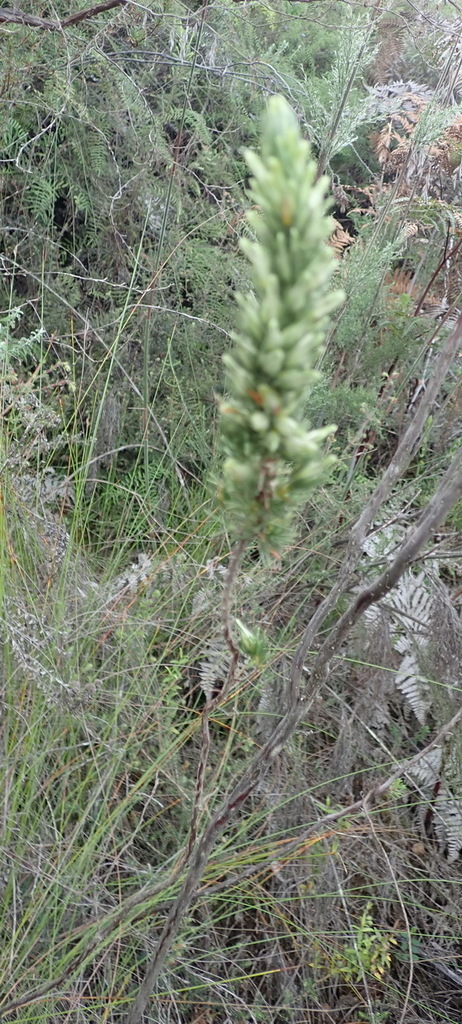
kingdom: Plantae
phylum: Tracheophyta
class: Magnoliopsida
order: Ericales
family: Ericaceae
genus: Erica
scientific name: Erica nabea
